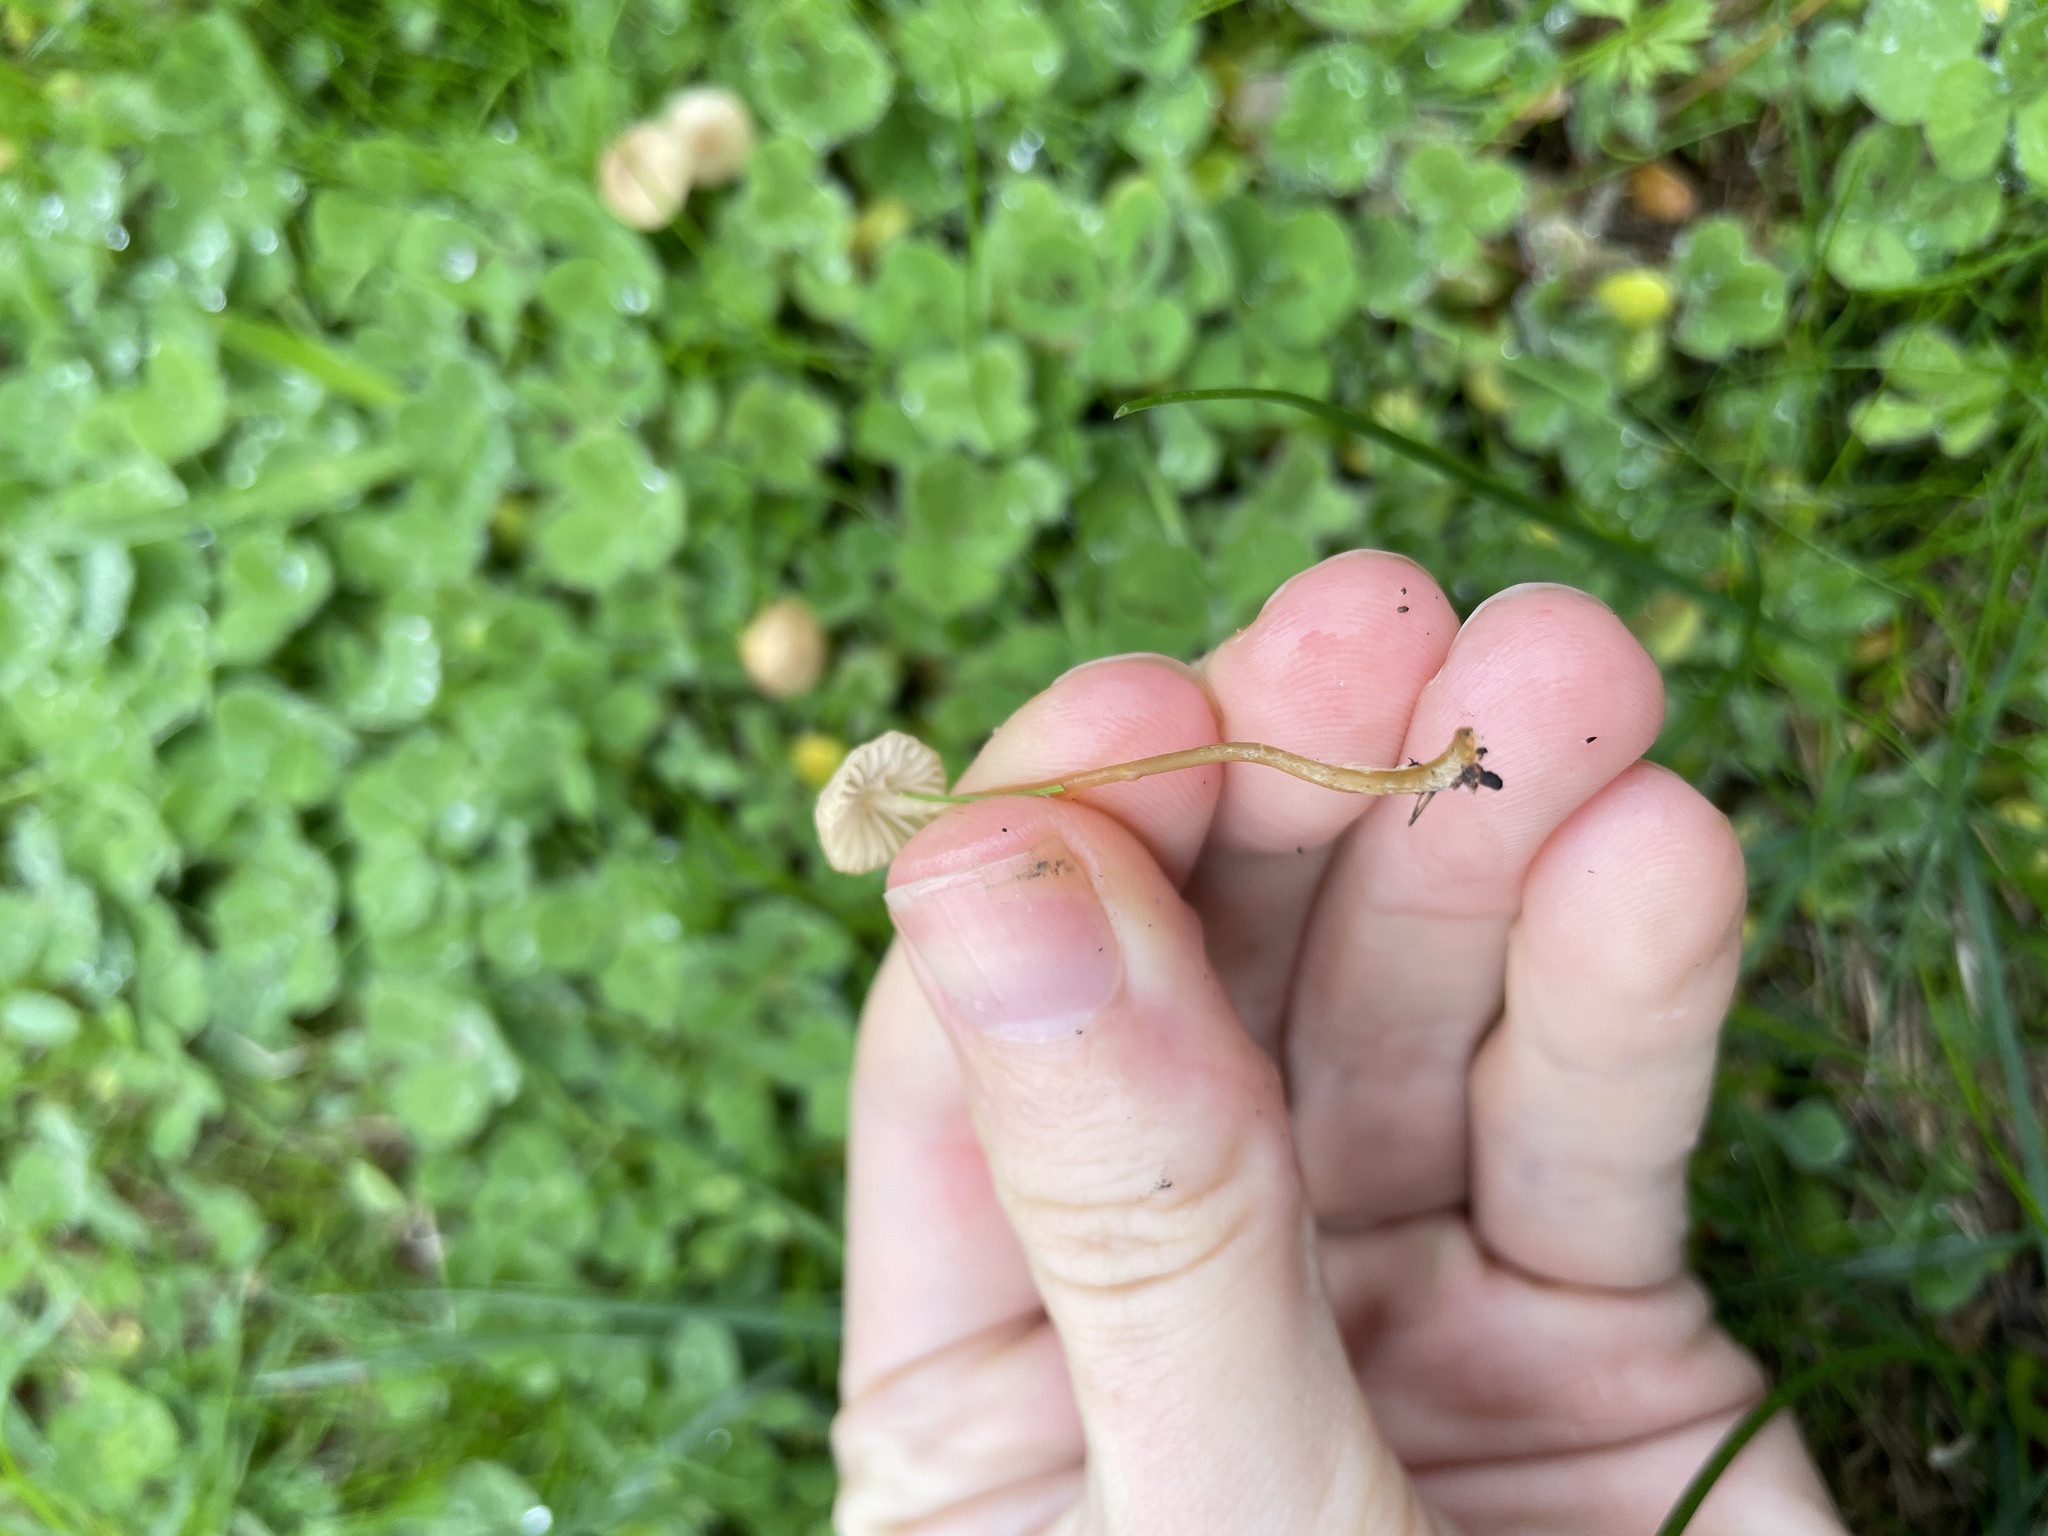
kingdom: Fungi
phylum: Basidiomycota
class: Agaricomycetes
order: Agaricales
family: Mycenaceae
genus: Mycena
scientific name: Mycena citrinomarginata
